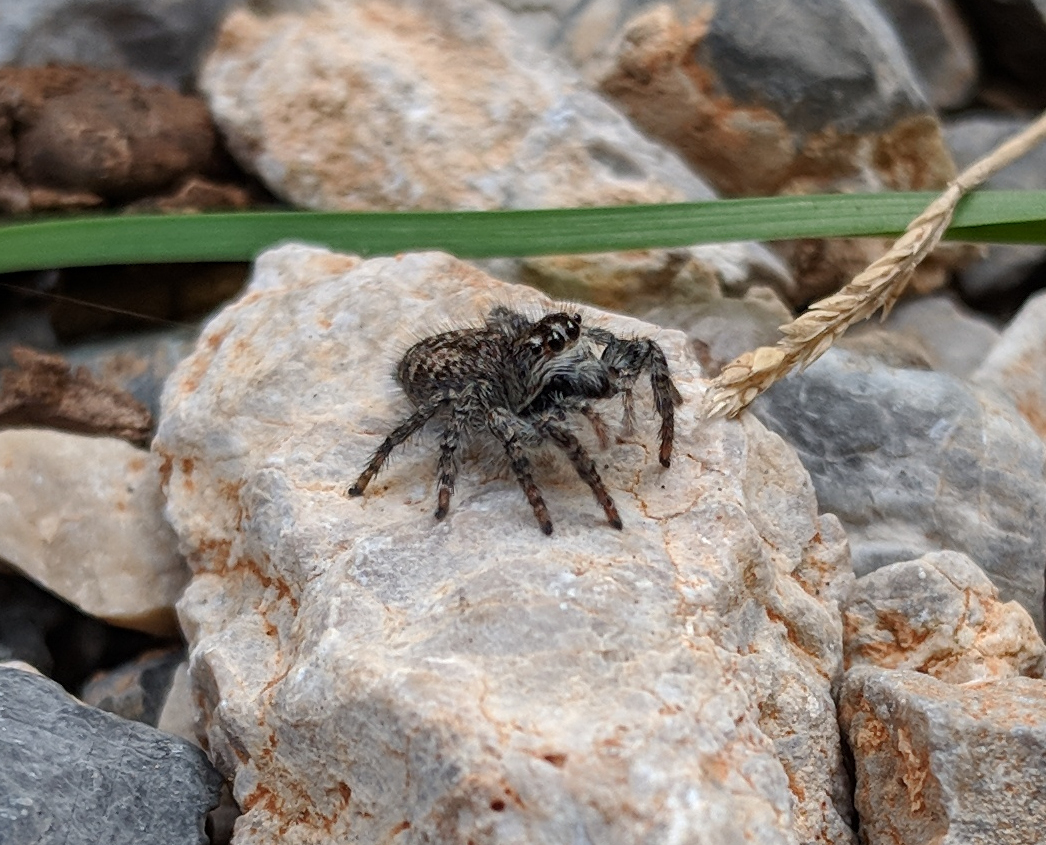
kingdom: Animalia
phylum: Arthropoda
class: Arachnida
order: Araneae
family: Salticidae
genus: Philaeus
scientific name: Philaeus chrysops
